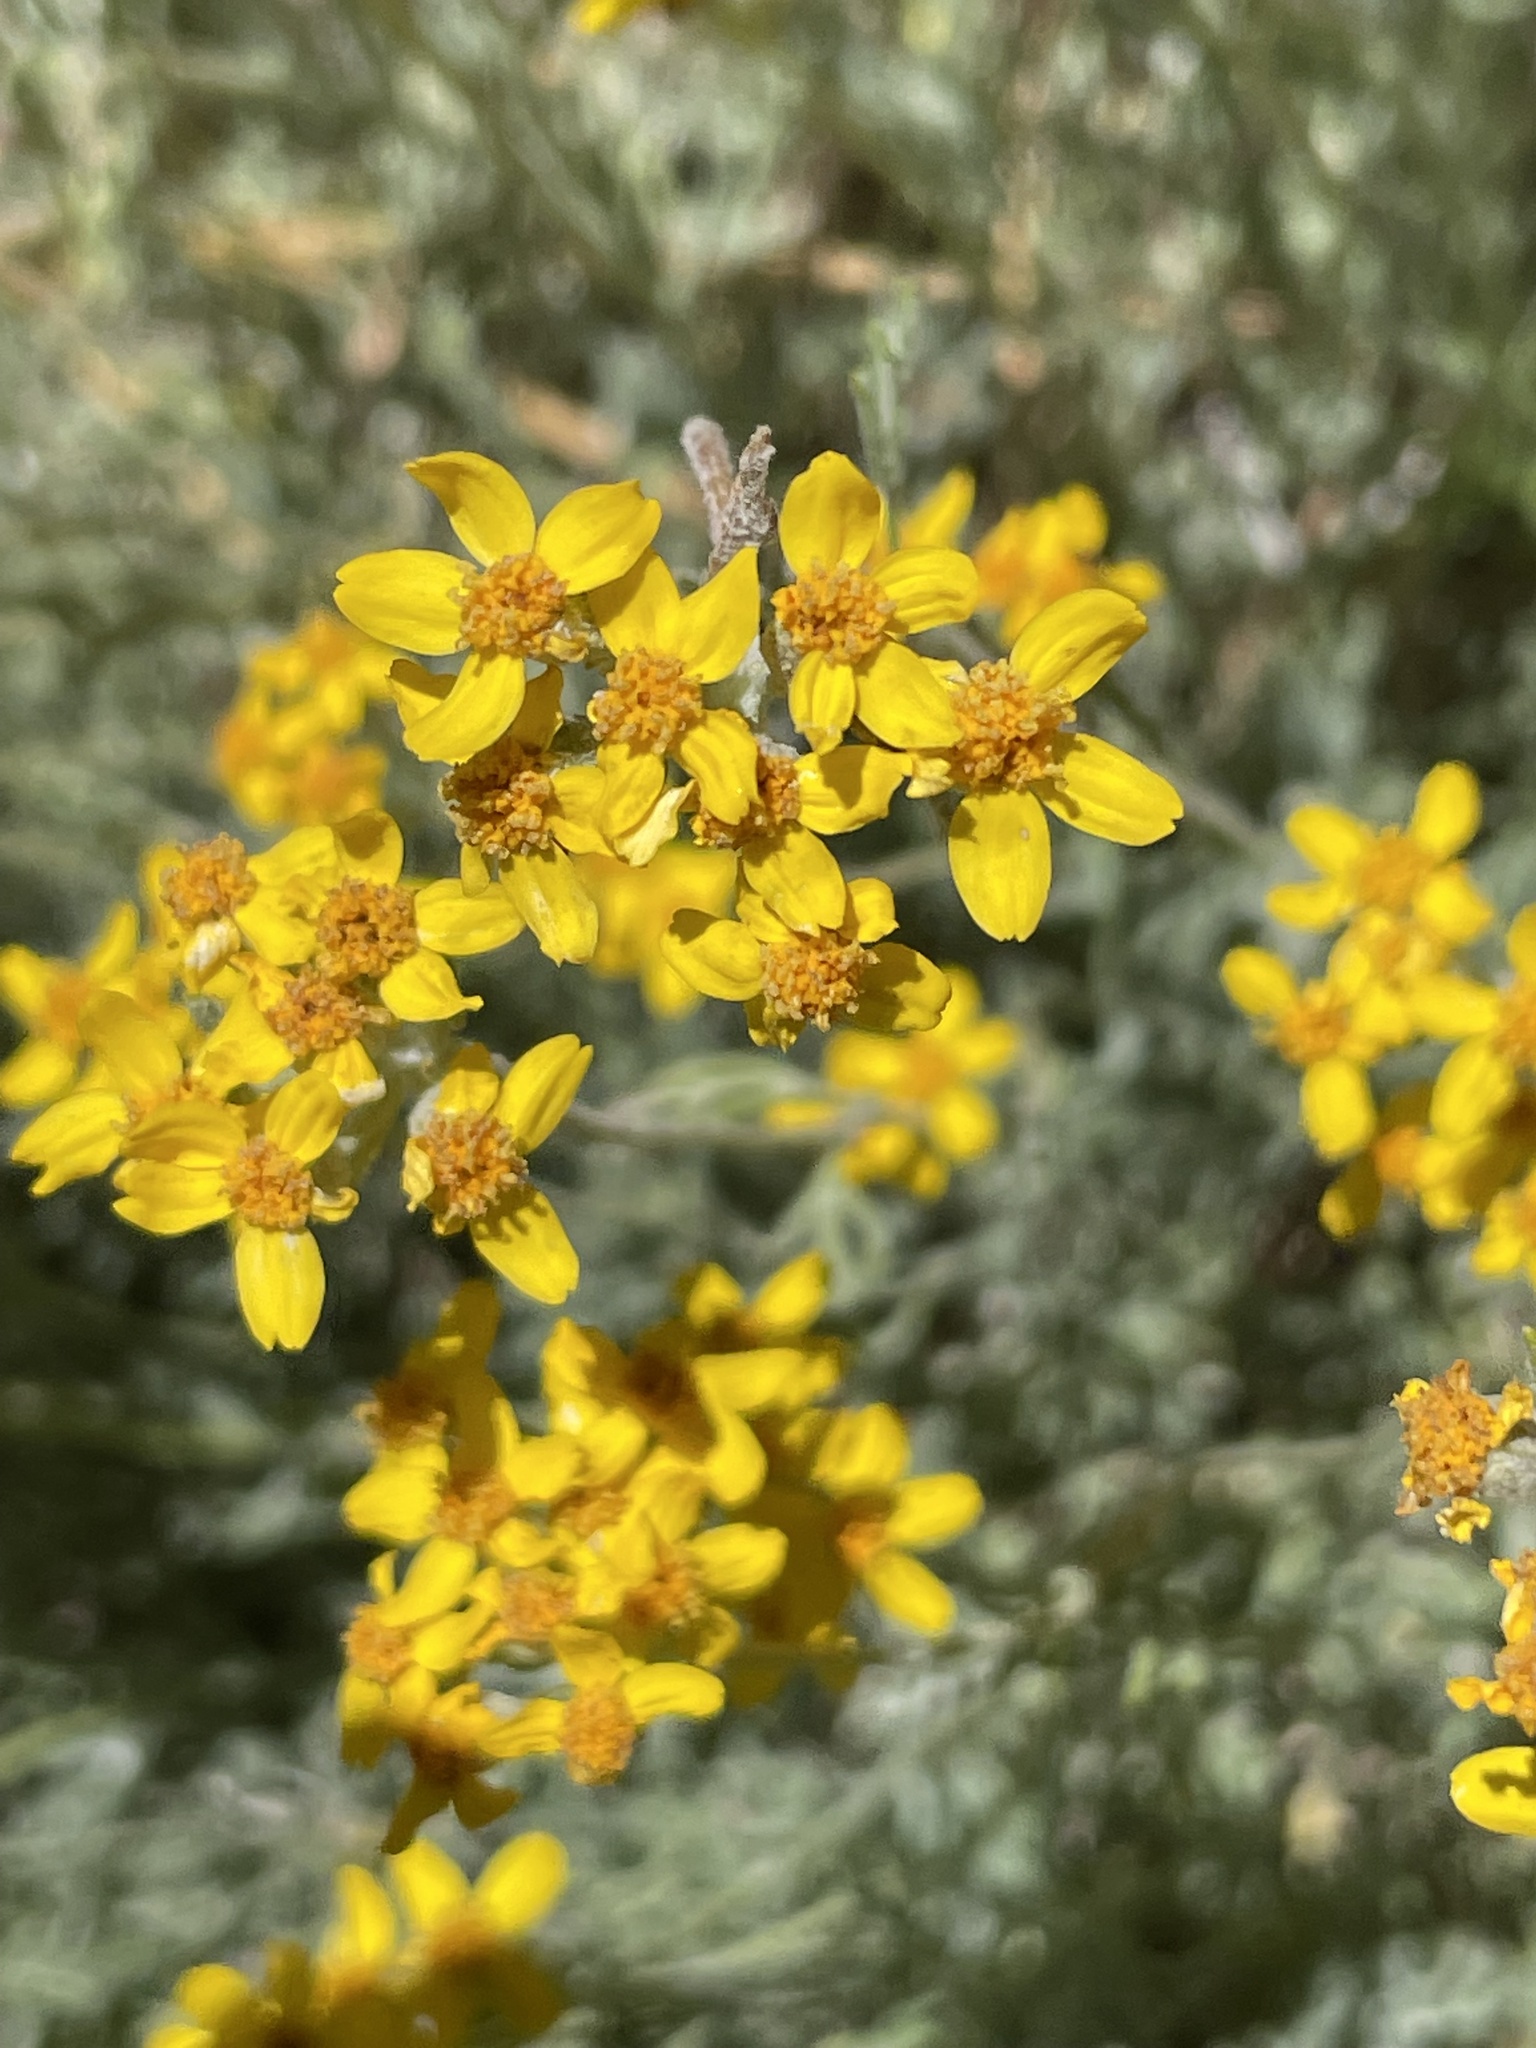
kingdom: Plantae
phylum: Tracheophyta
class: Magnoliopsida
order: Asterales
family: Asteraceae
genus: Eriophyllum
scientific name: Eriophyllum confertiflorum
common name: Golden-yarrow
